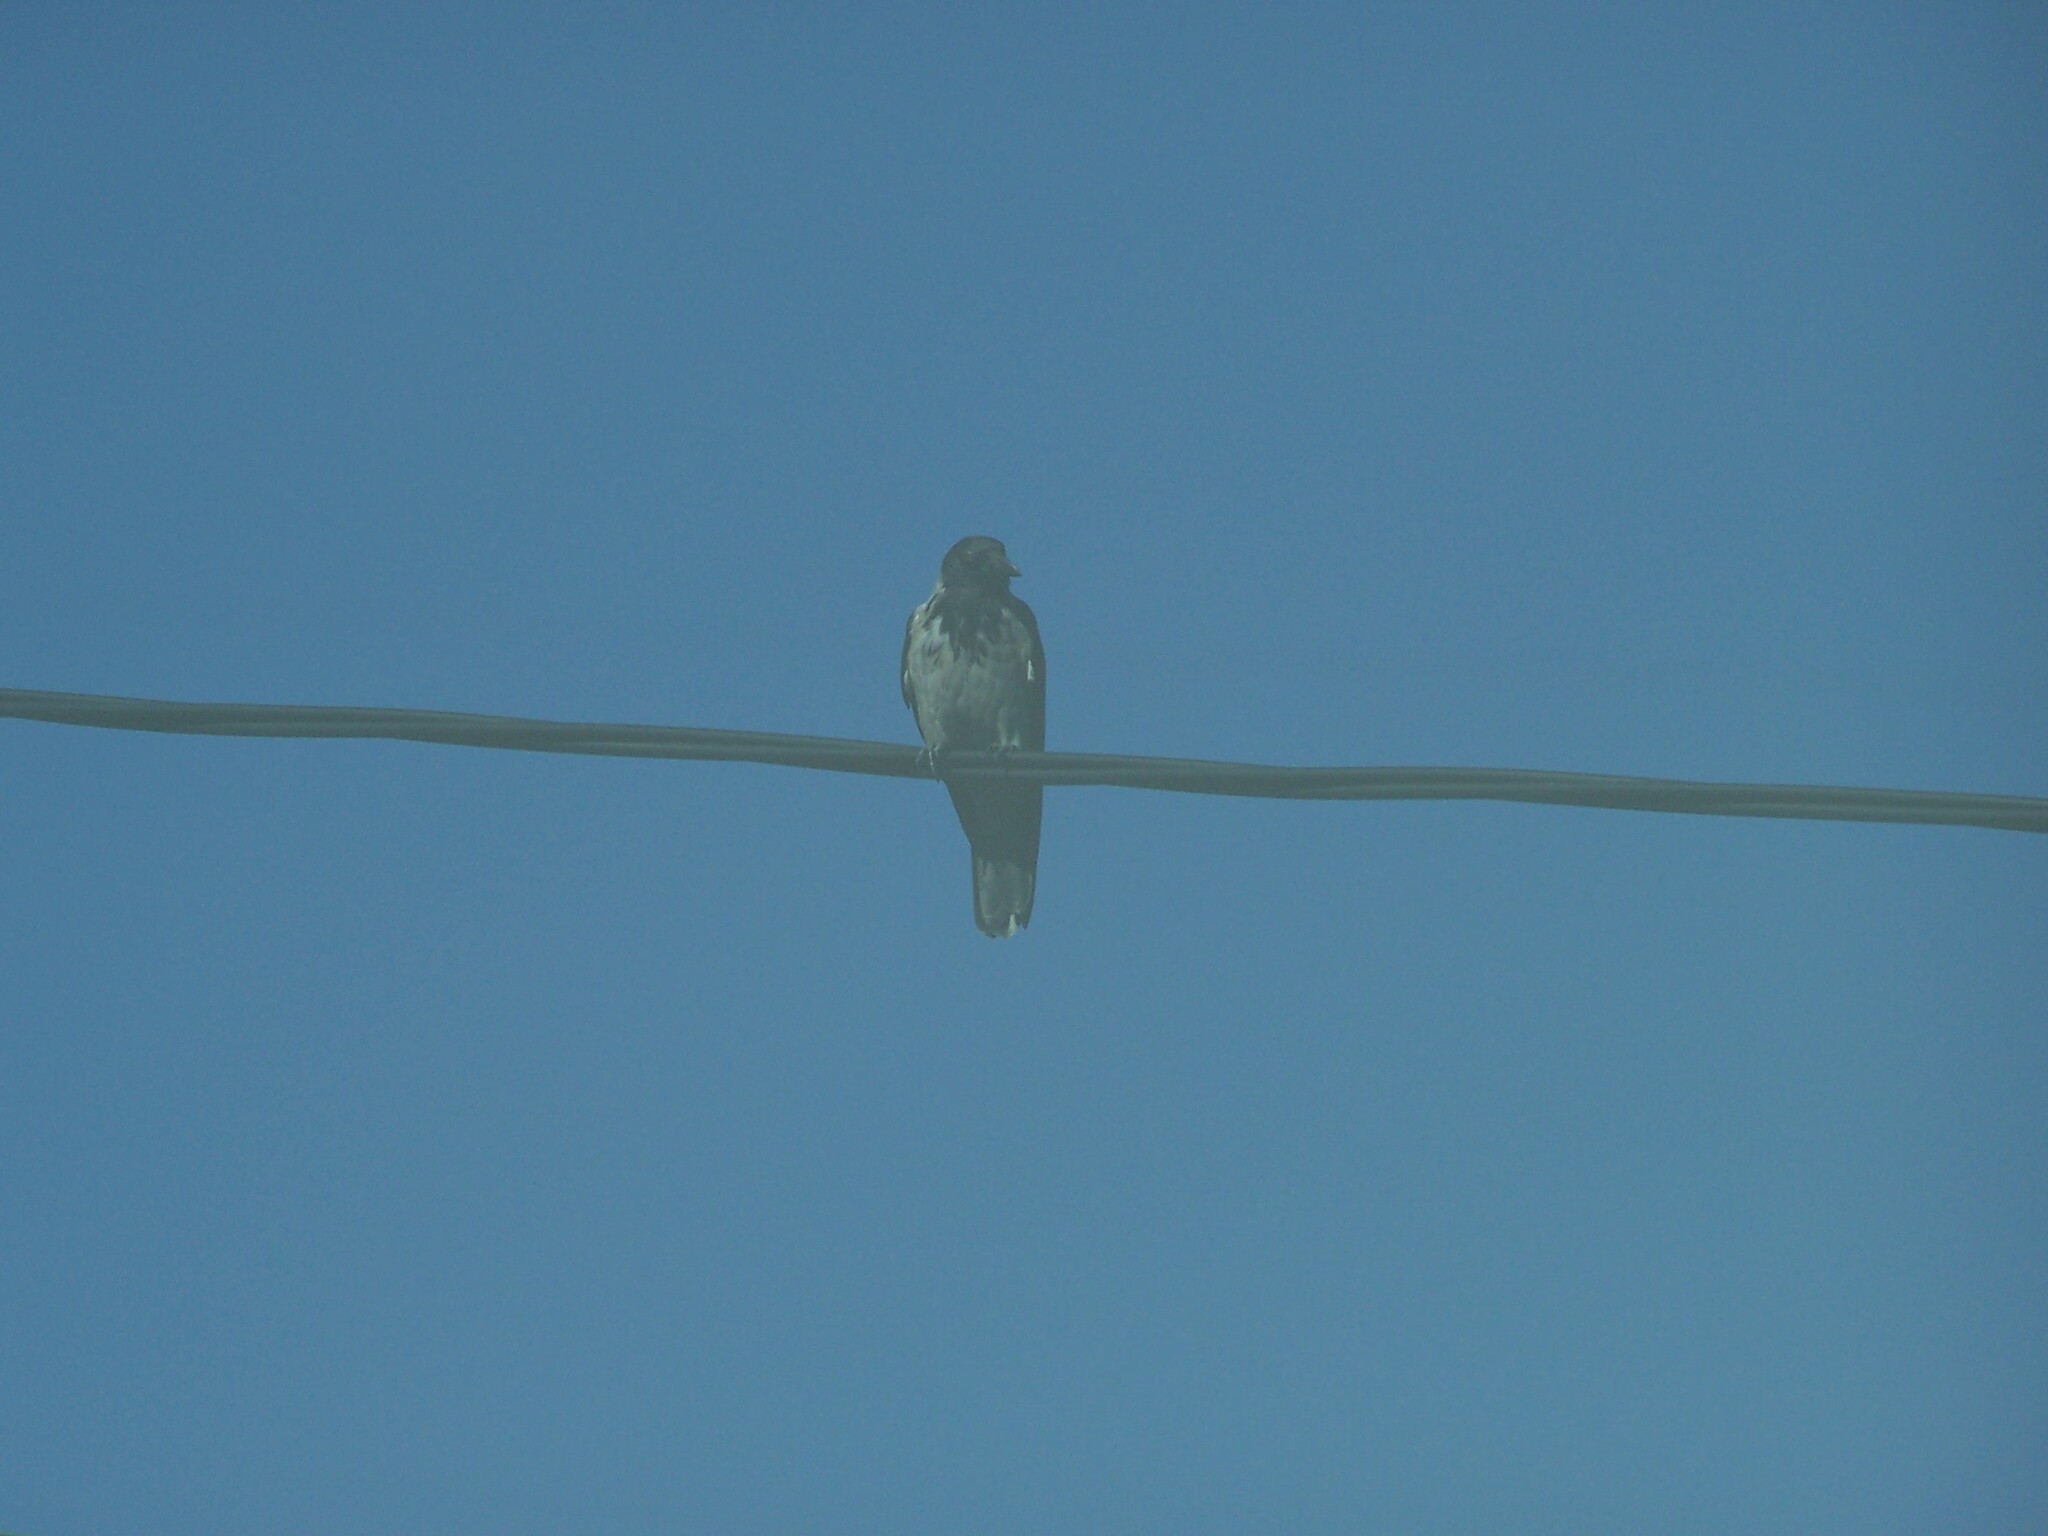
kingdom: Animalia
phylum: Chordata
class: Aves
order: Passeriformes
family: Corvidae
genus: Corvus
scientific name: Corvus cornix
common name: Hooded crow
